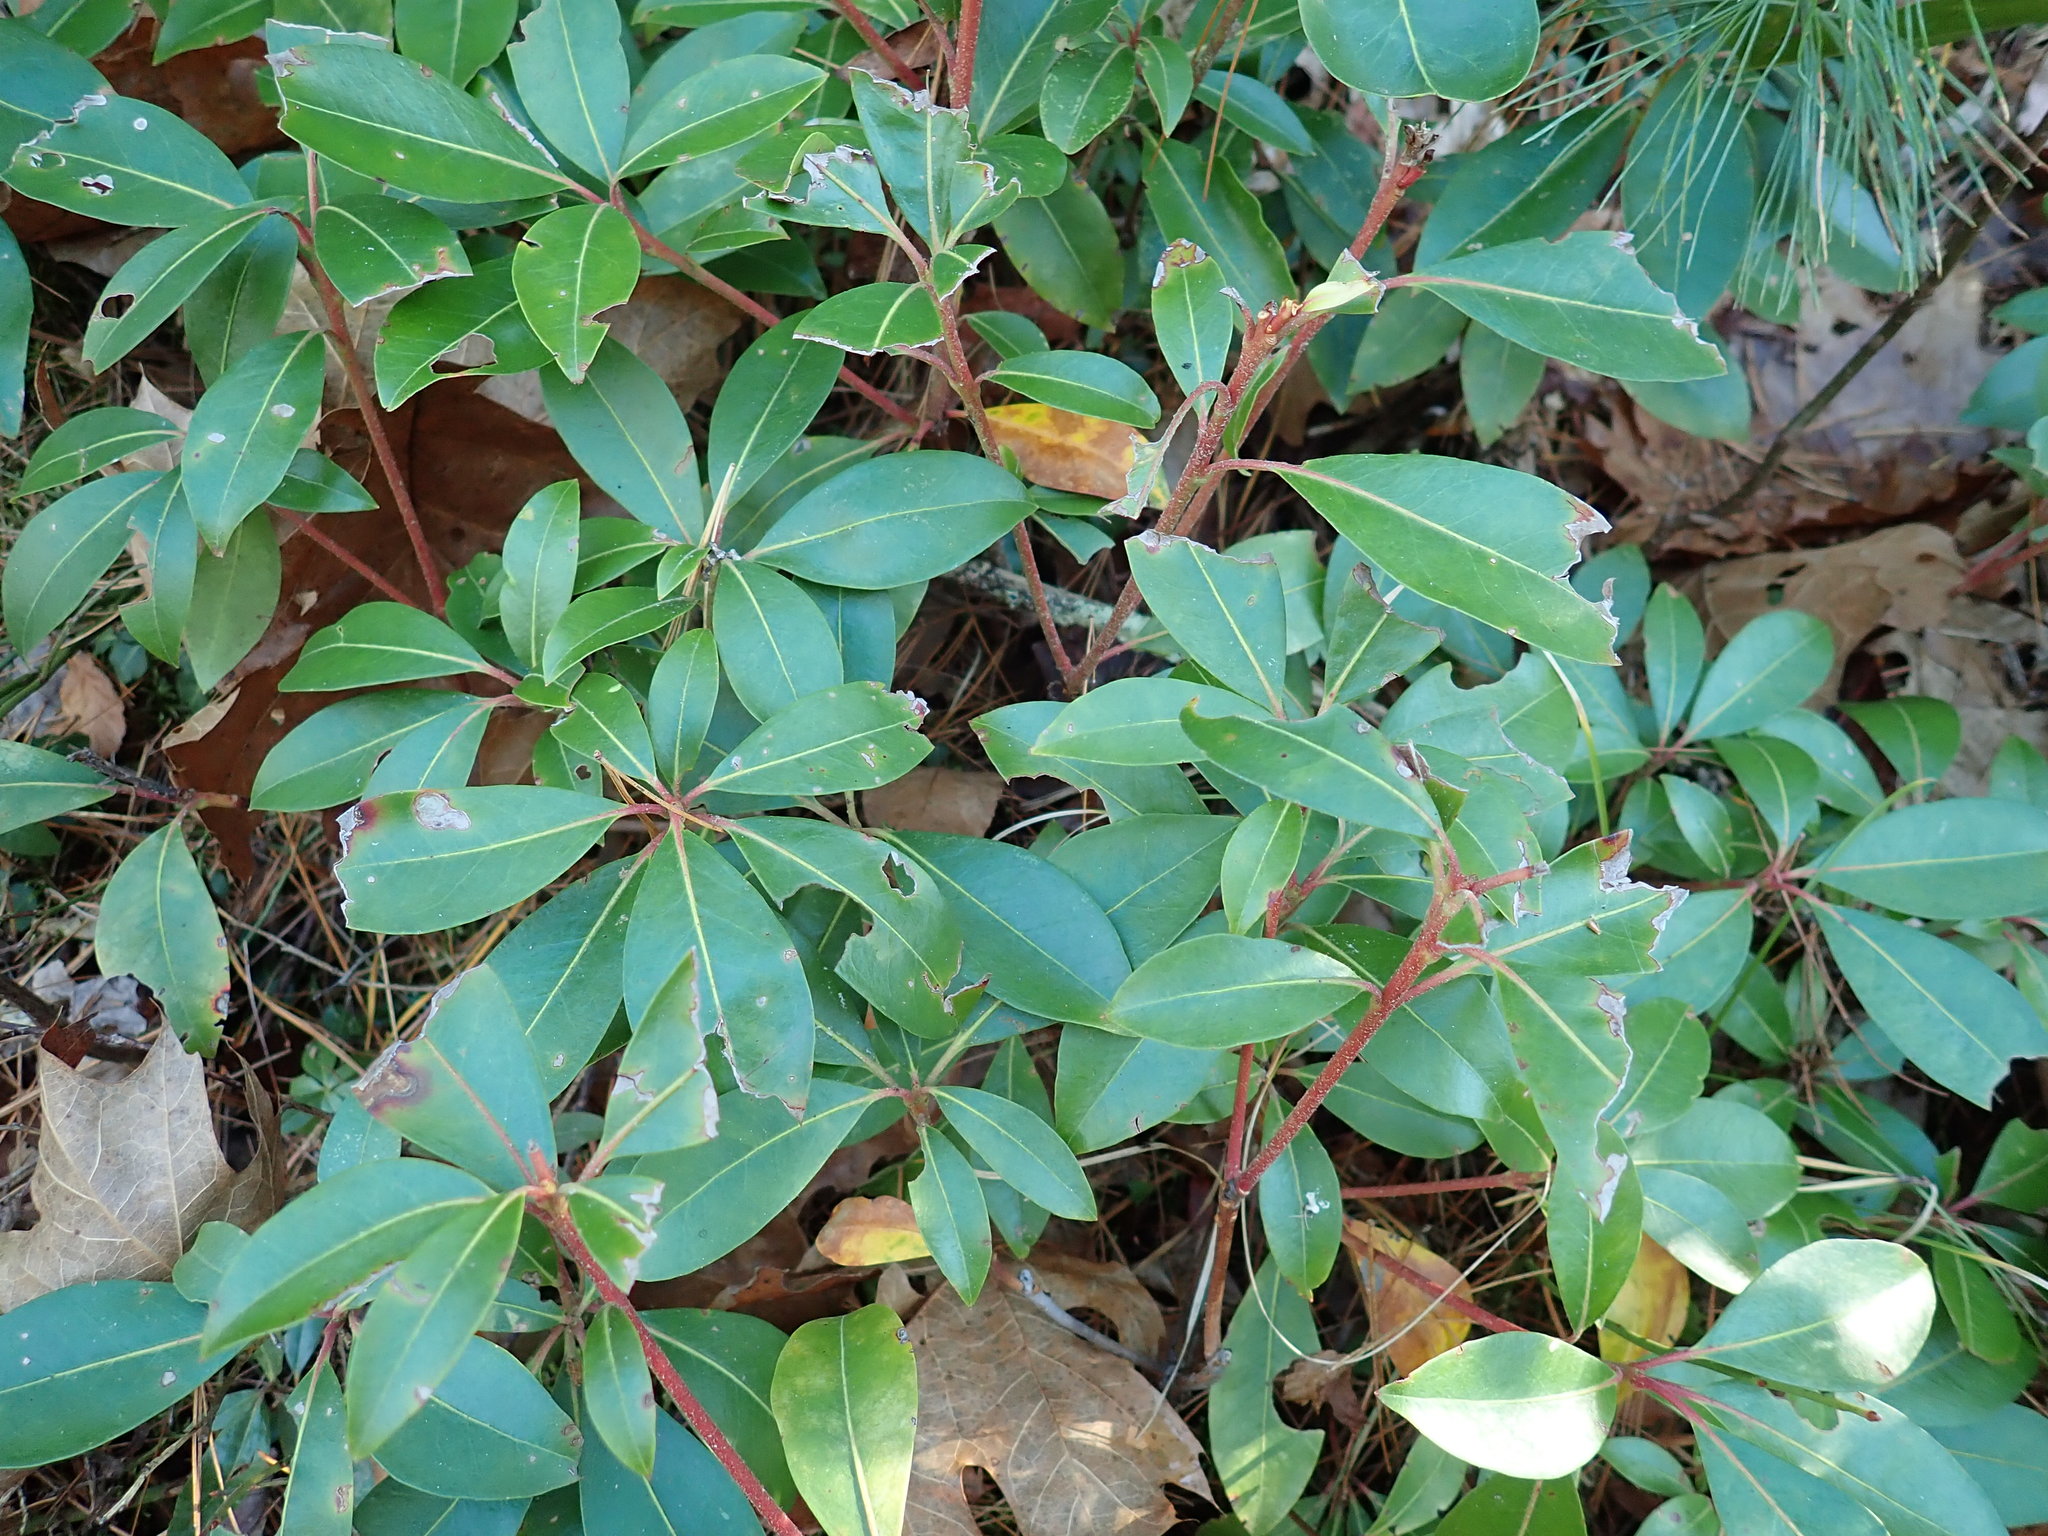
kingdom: Plantae
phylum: Tracheophyta
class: Magnoliopsida
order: Ericales
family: Ericaceae
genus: Kalmia
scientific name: Kalmia latifolia
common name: Mountain-laurel
